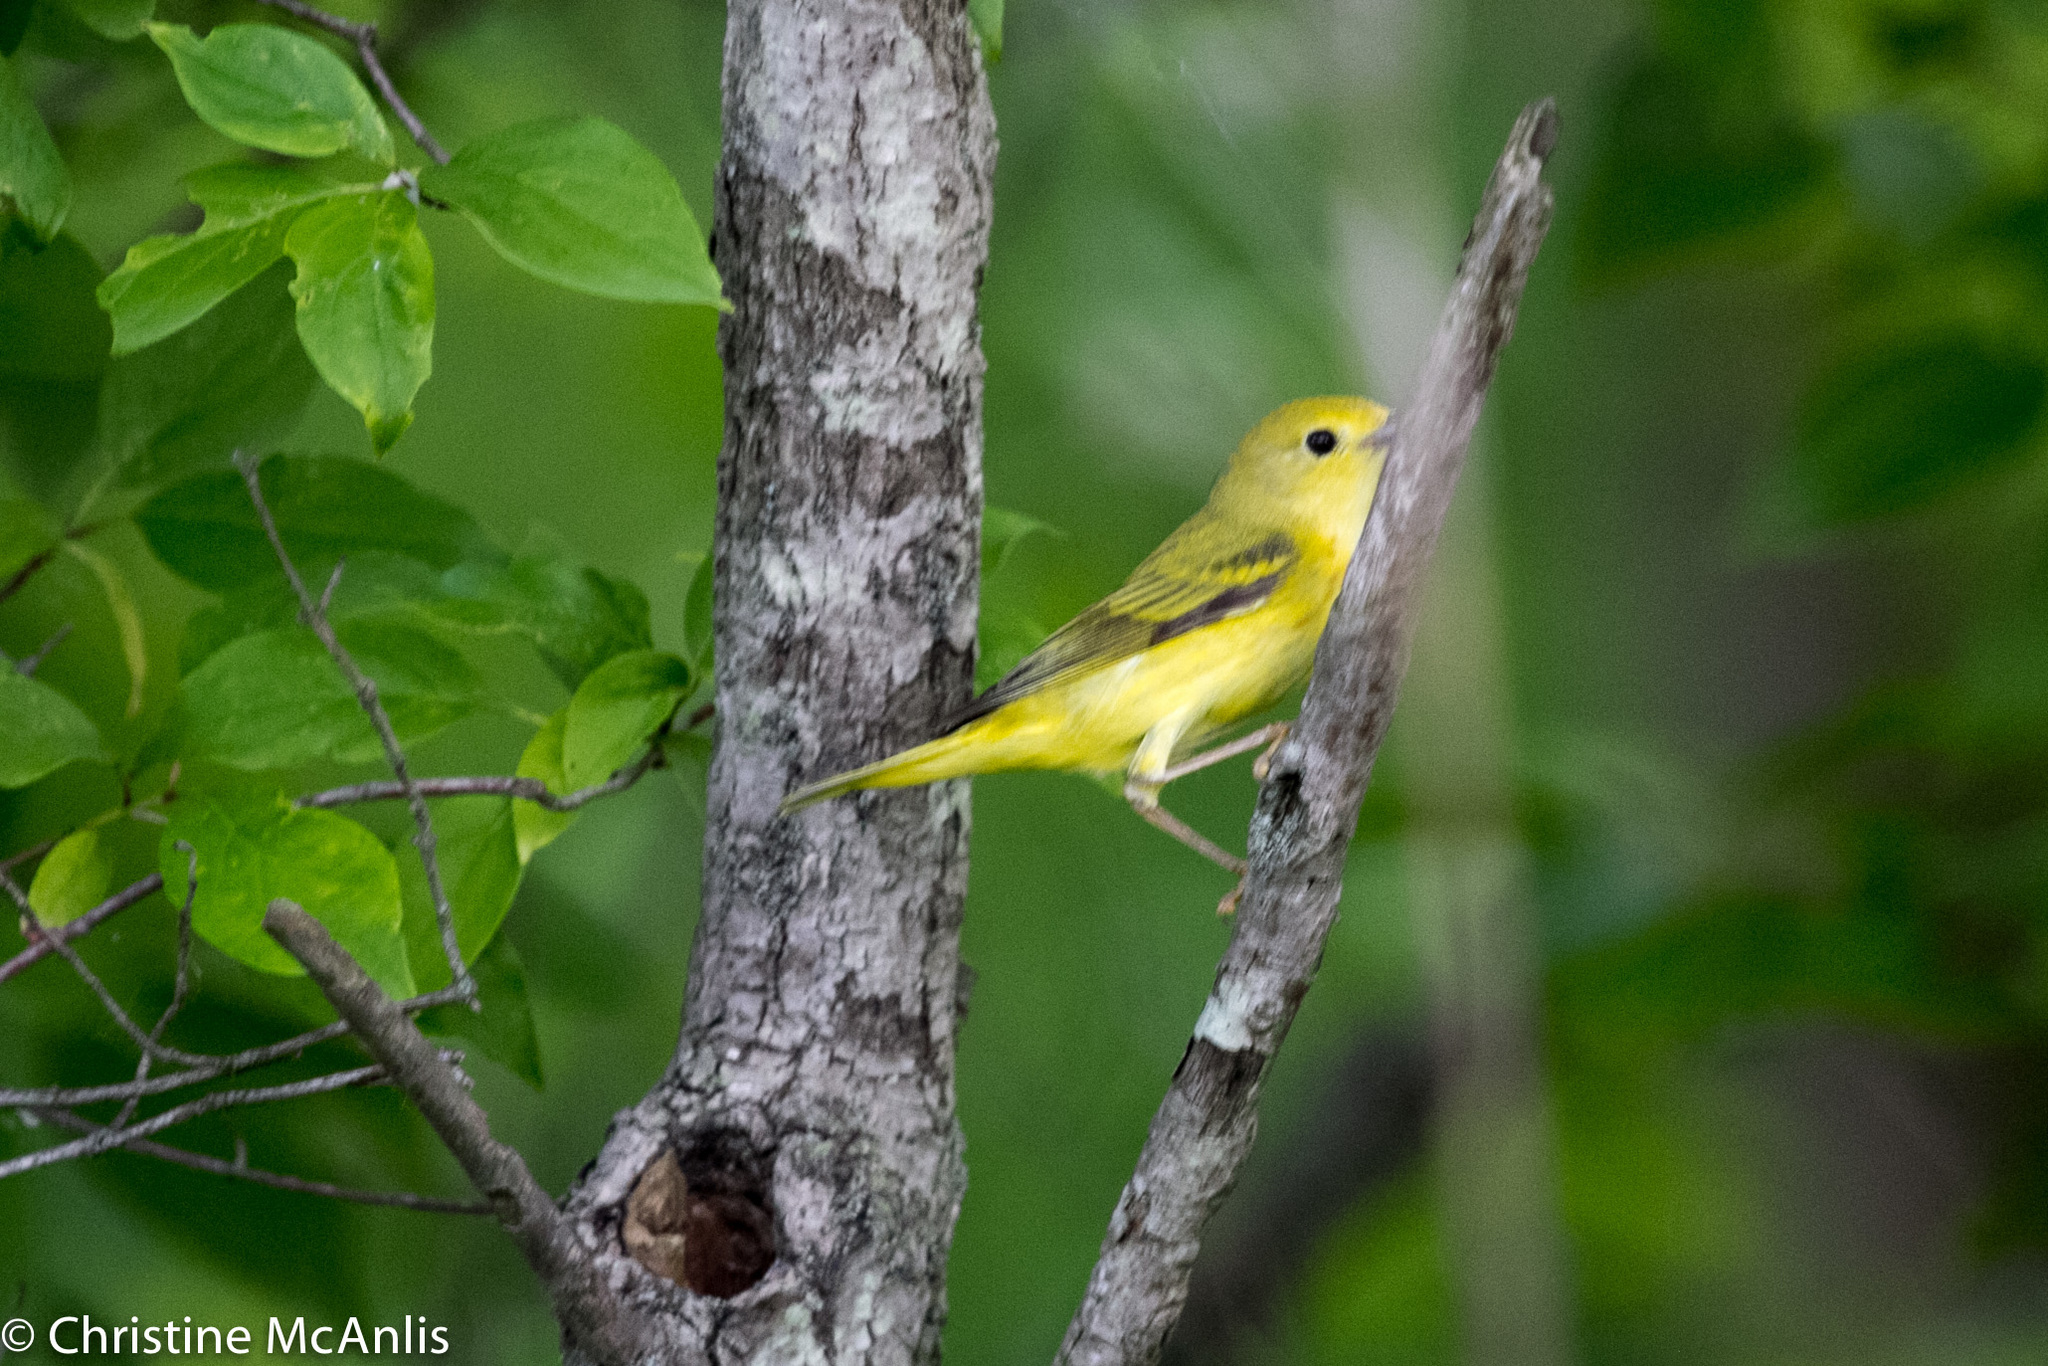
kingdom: Animalia
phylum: Chordata
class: Aves
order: Passeriformes
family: Parulidae
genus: Setophaga
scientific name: Setophaga petechia
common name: Yellow warbler
